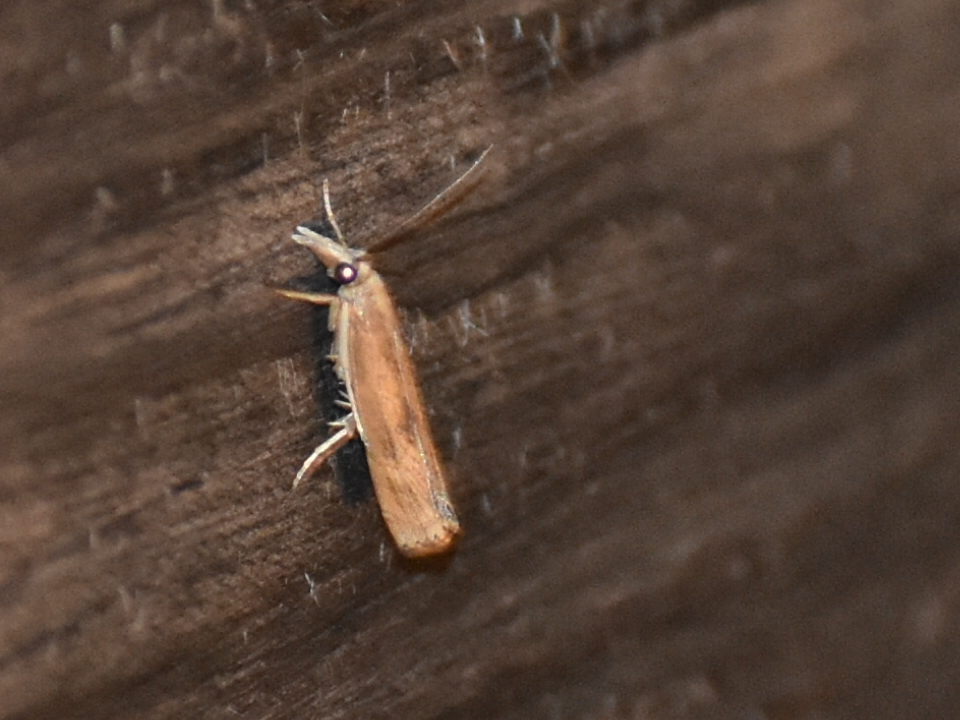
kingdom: Animalia
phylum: Arthropoda
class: Insecta
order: Lepidoptera
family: Crambidae
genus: Parapediasia
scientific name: Parapediasia teterellus
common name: Bluegrass webworm moth
